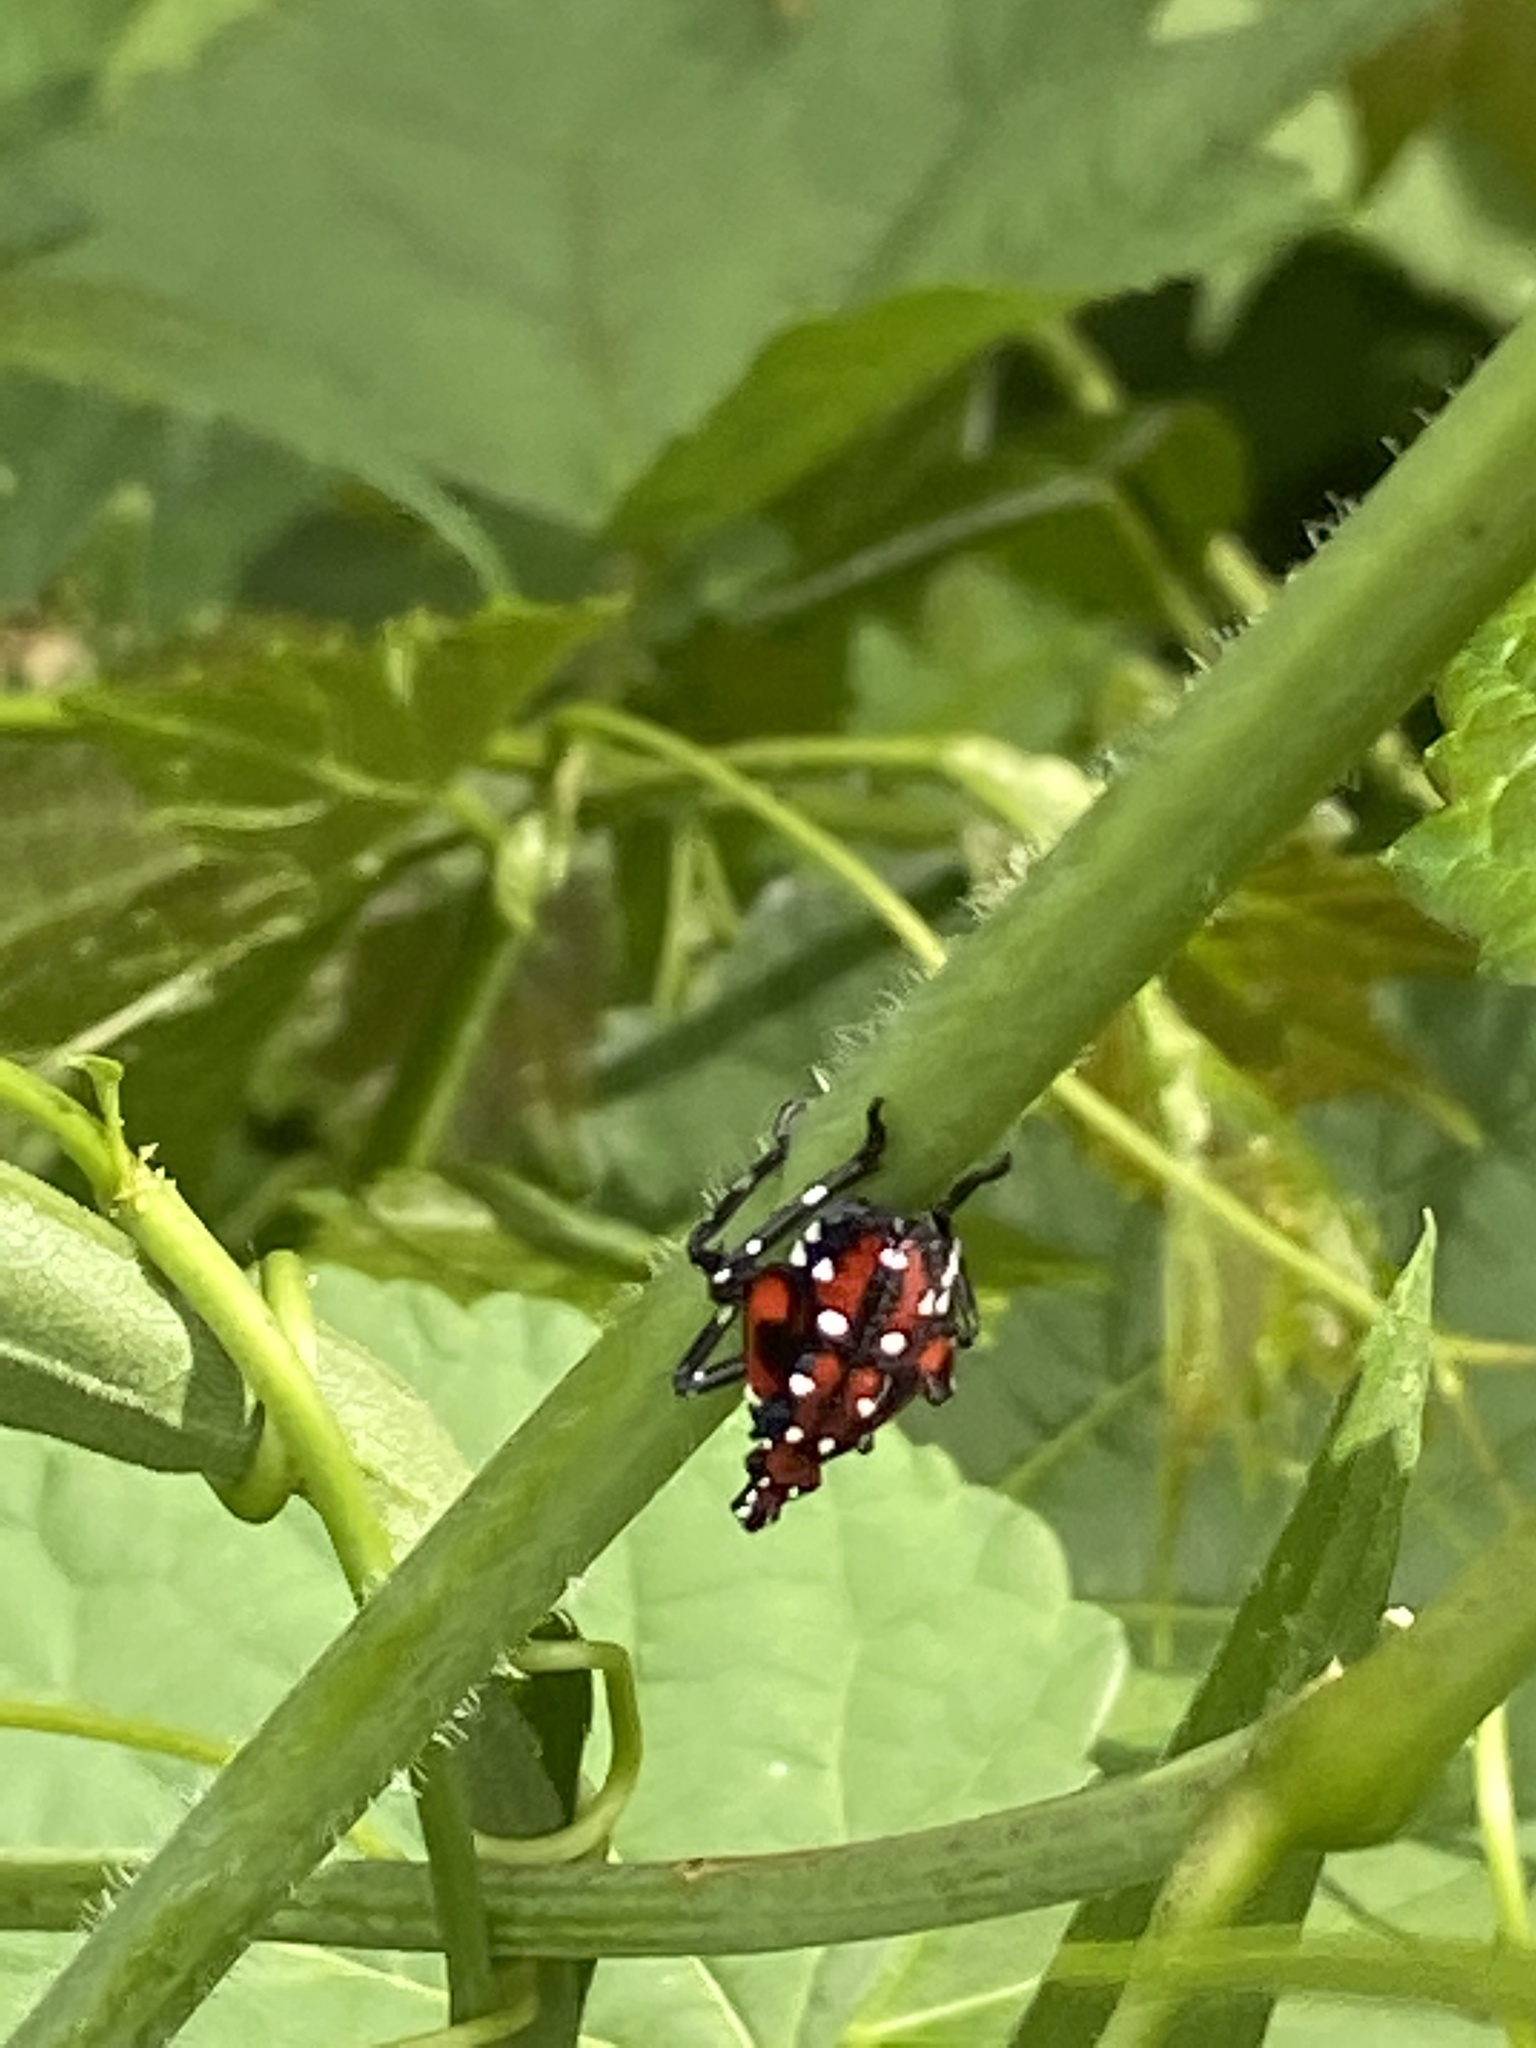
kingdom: Animalia
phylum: Arthropoda
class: Insecta
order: Hemiptera
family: Fulgoridae
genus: Lycorma
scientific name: Lycorma delicatula
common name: Spotted lanternfly
